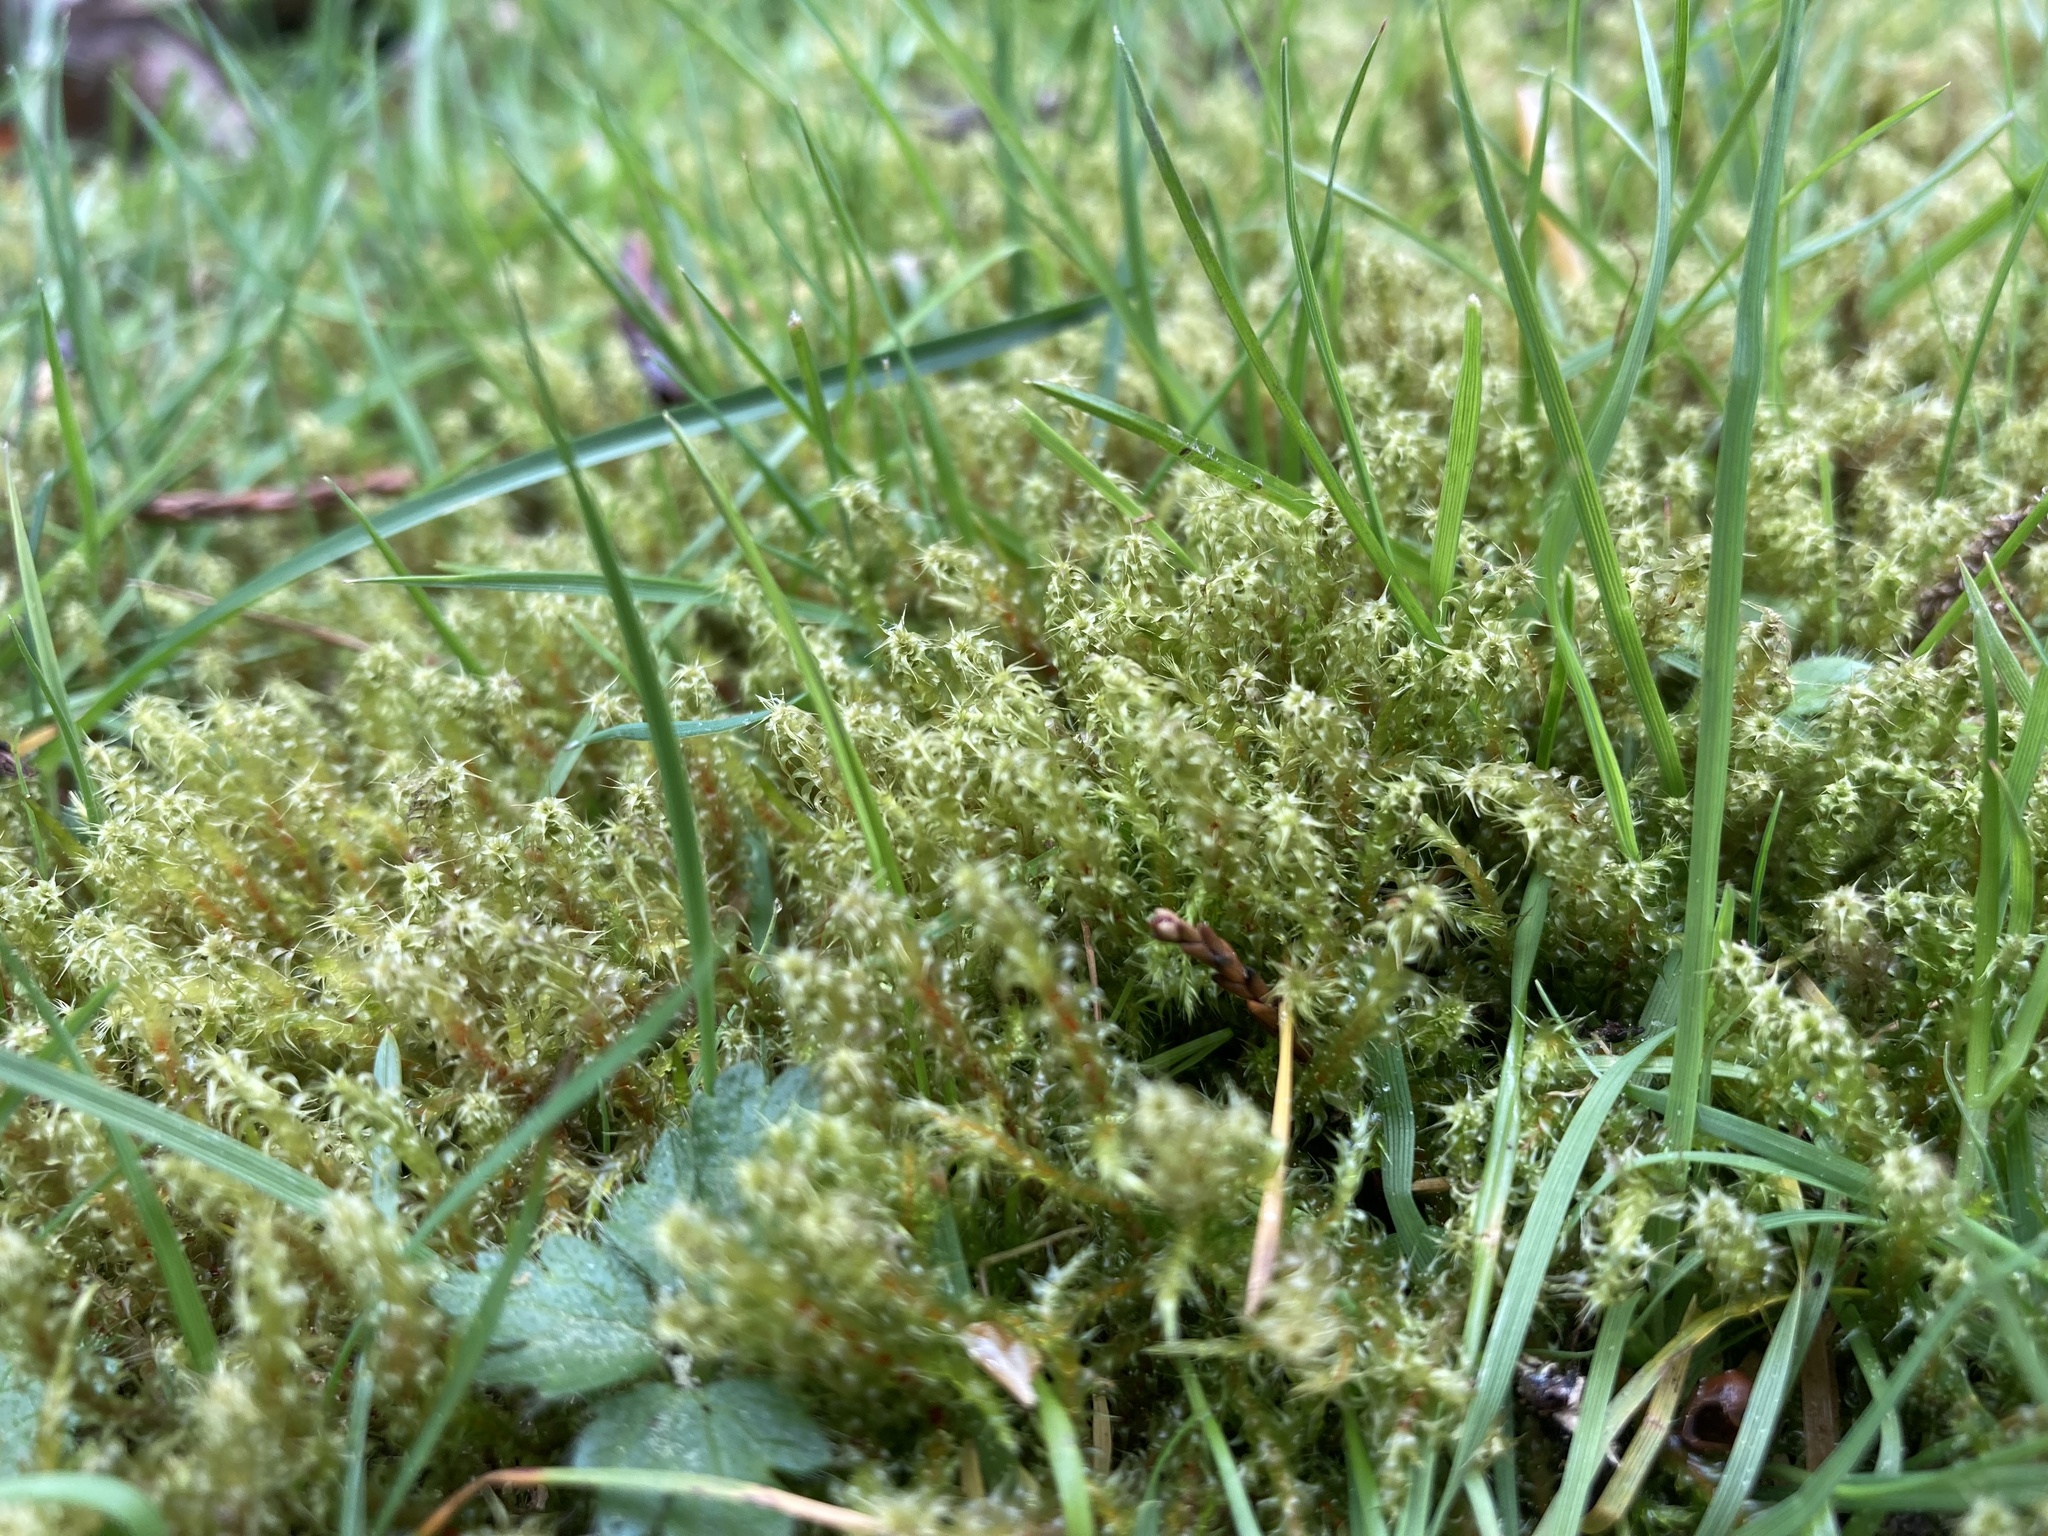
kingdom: Plantae
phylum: Bryophyta
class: Bryopsida
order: Hypnales
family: Hylocomiaceae
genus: Rhytidiadelphus
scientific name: Rhytidiadelphus squarrosus
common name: Springy turf-moss
